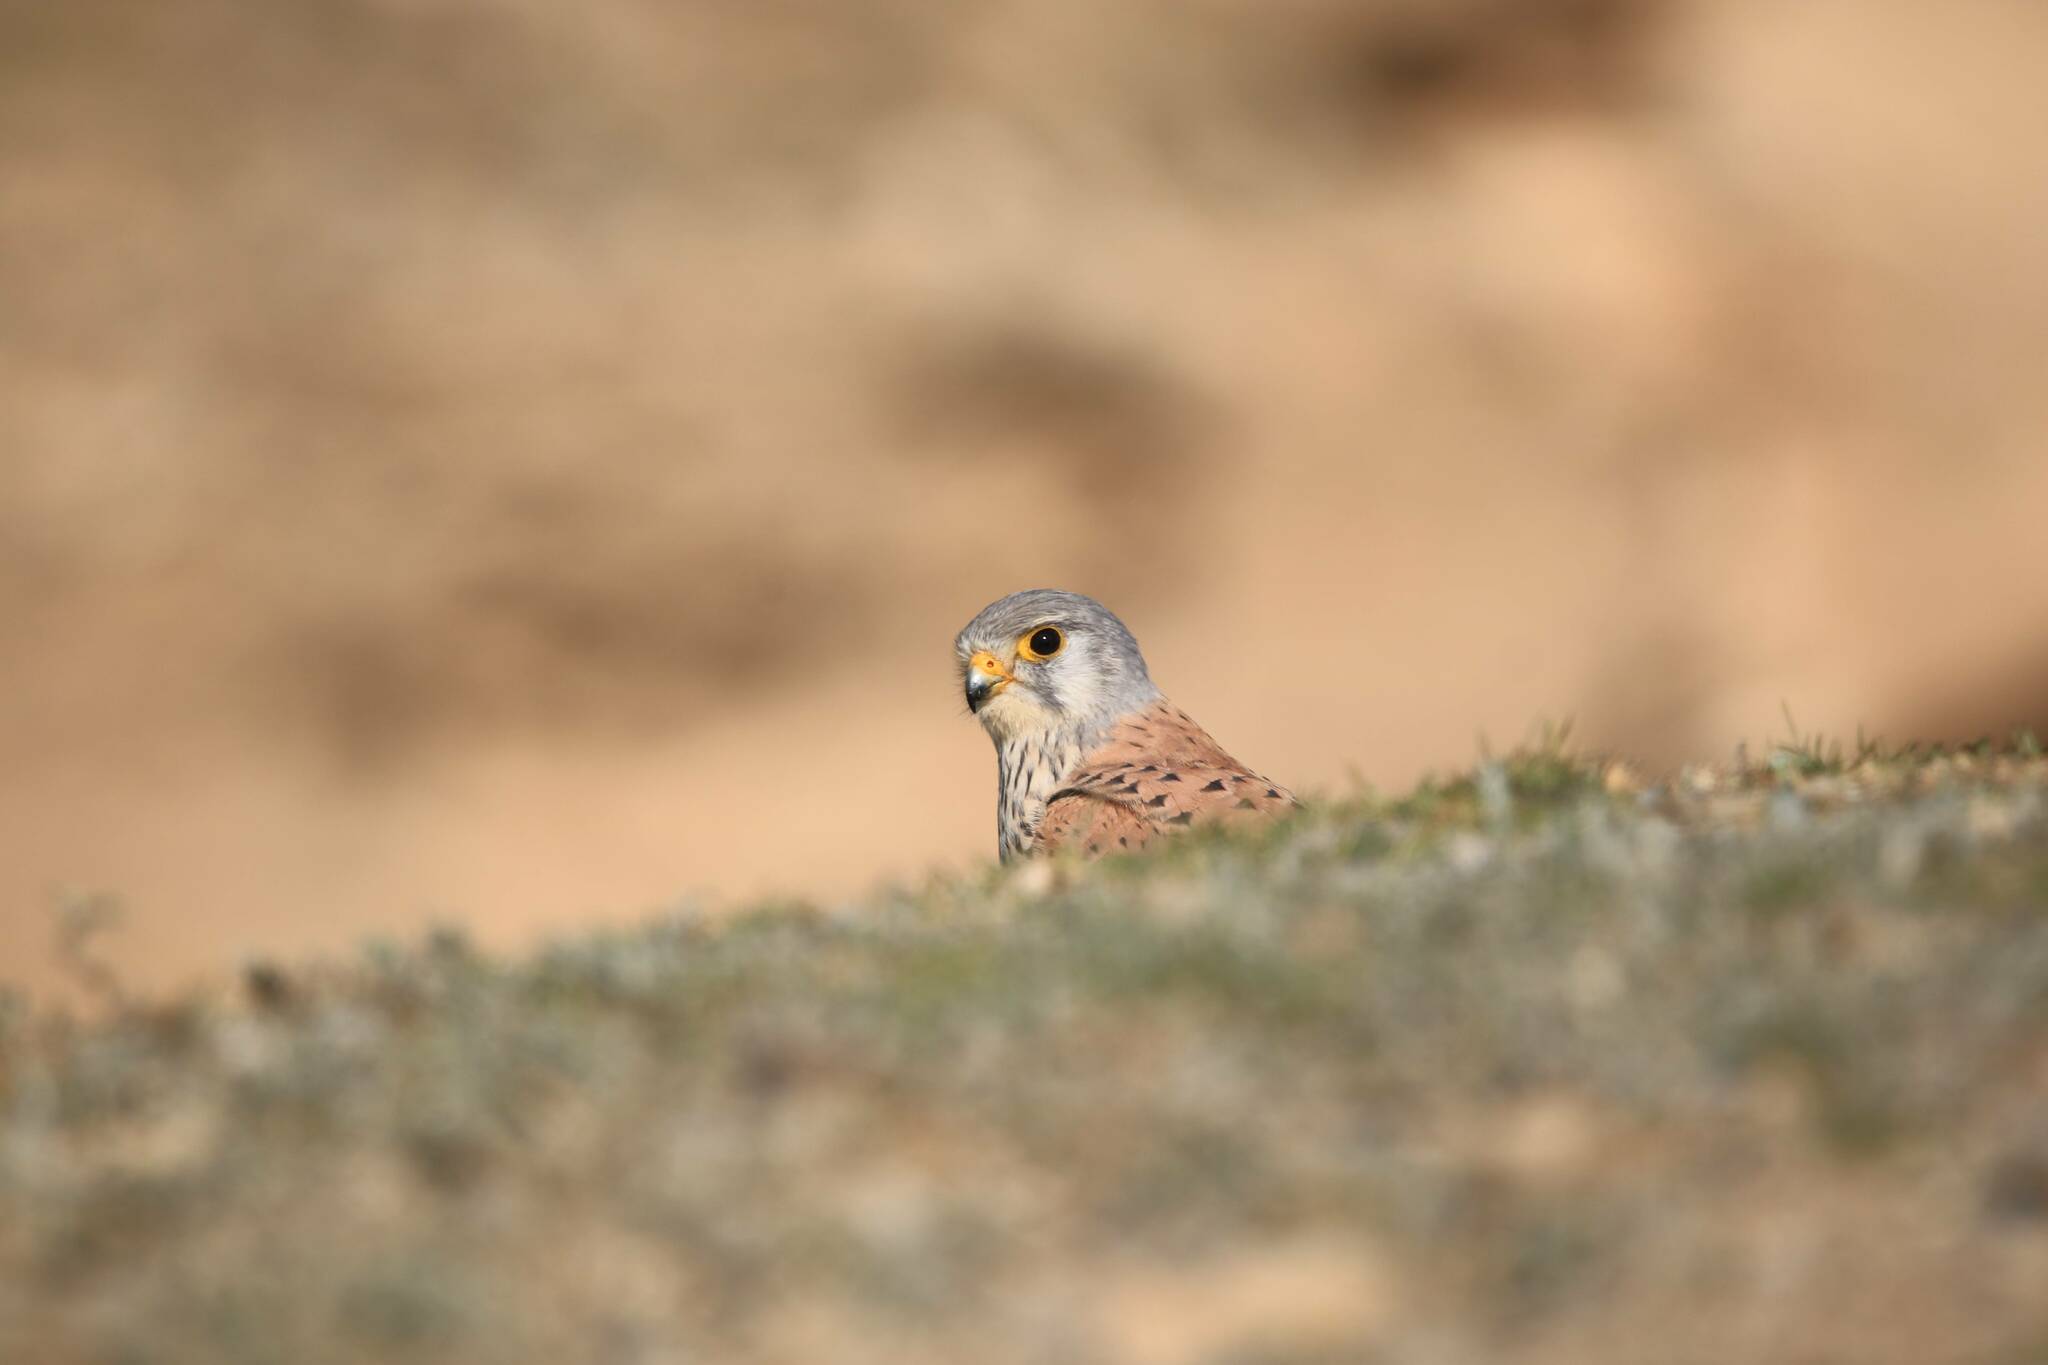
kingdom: Animalia
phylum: Chordata
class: Aves
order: Falconiformes
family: Falconidae
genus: Falco
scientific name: Falco tinnunculus
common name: Common kestrel
